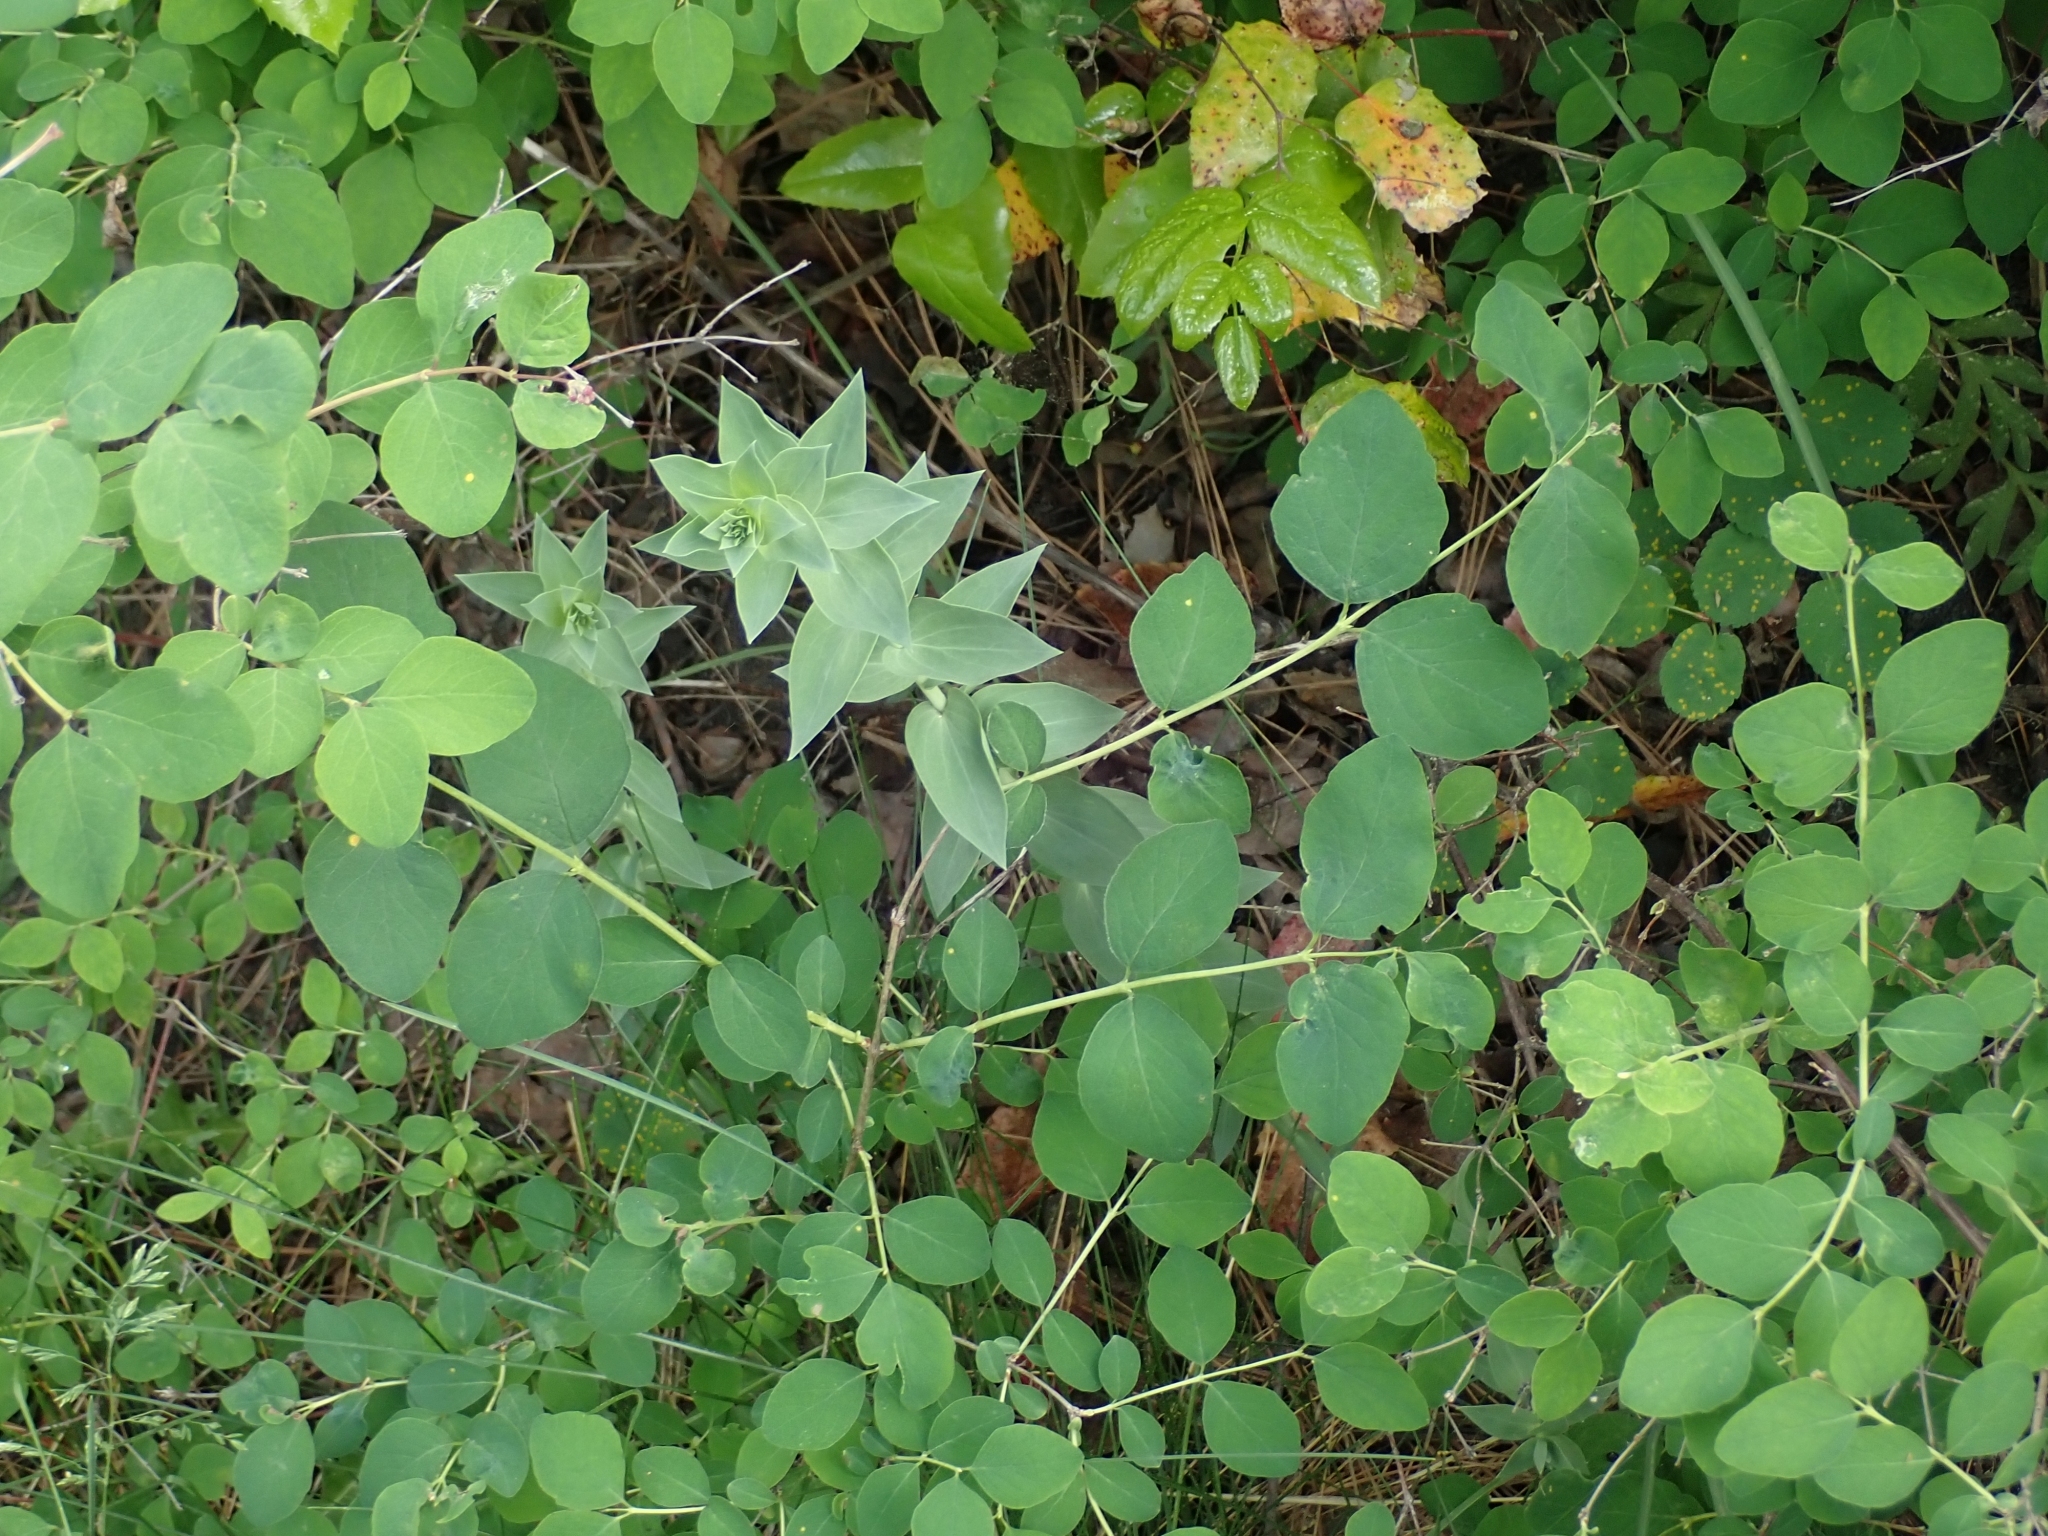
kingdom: Plantae
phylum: Tracheophyta
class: Magnoliopsida
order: Lamiales
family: Plantaginaceae
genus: Linaria
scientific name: Linaria dalmatica
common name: Dalmatian toadflax
